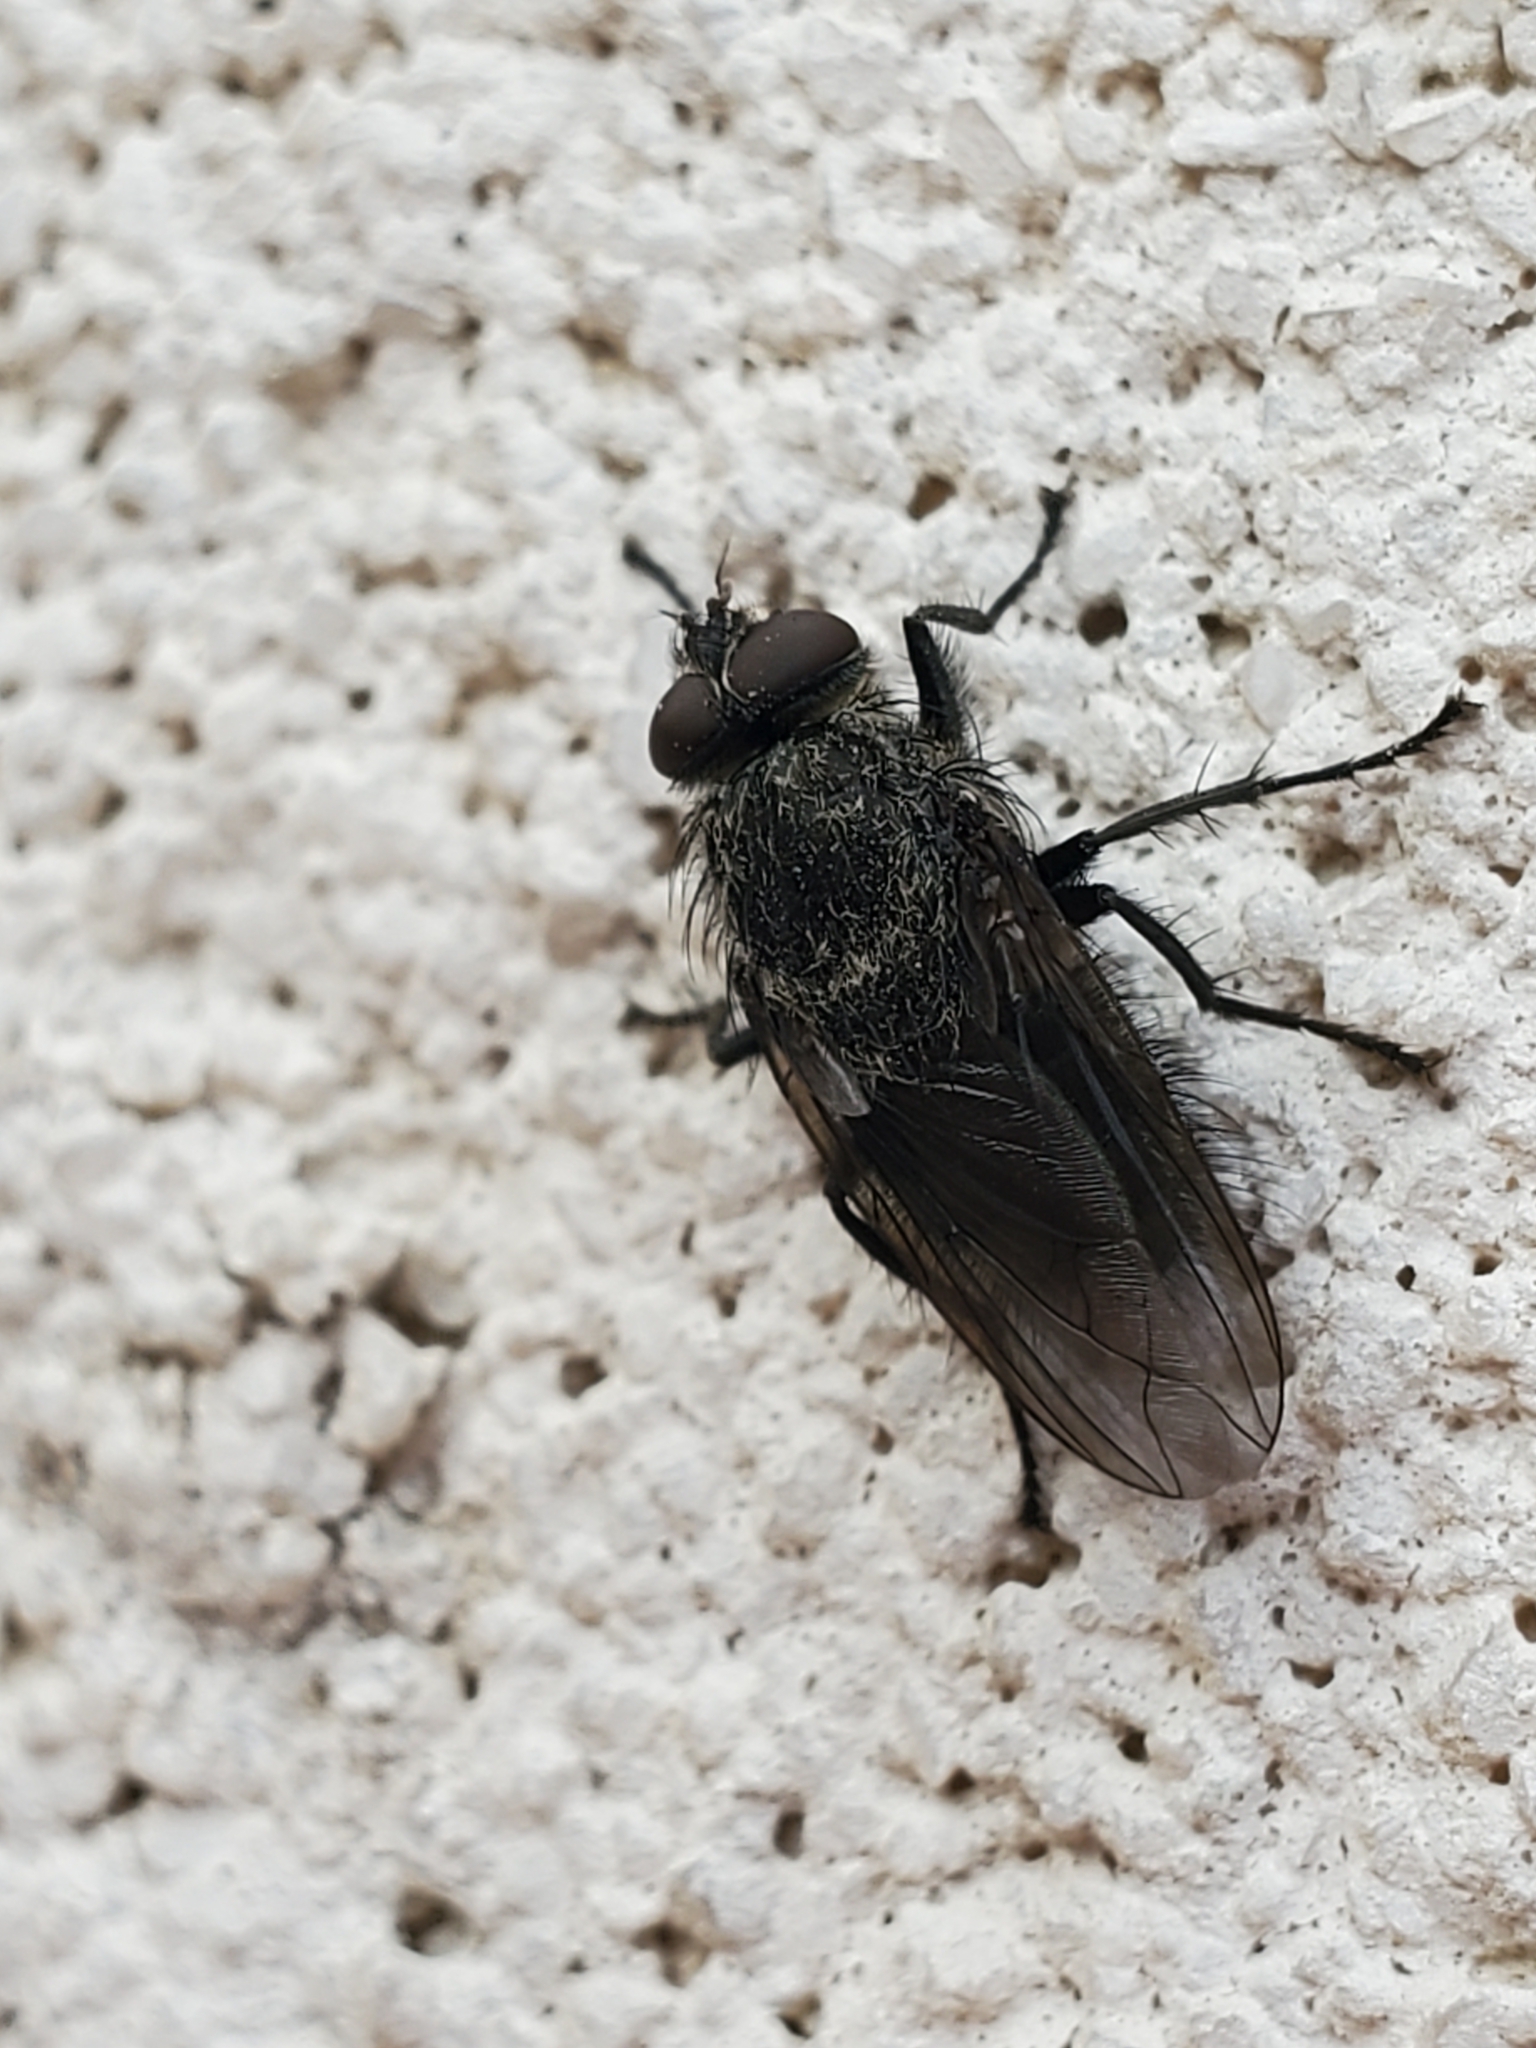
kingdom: Animalia
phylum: Arthropoda
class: Insecta
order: Diptera
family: Polleniidae
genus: Pollenia
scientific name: Pollenia
